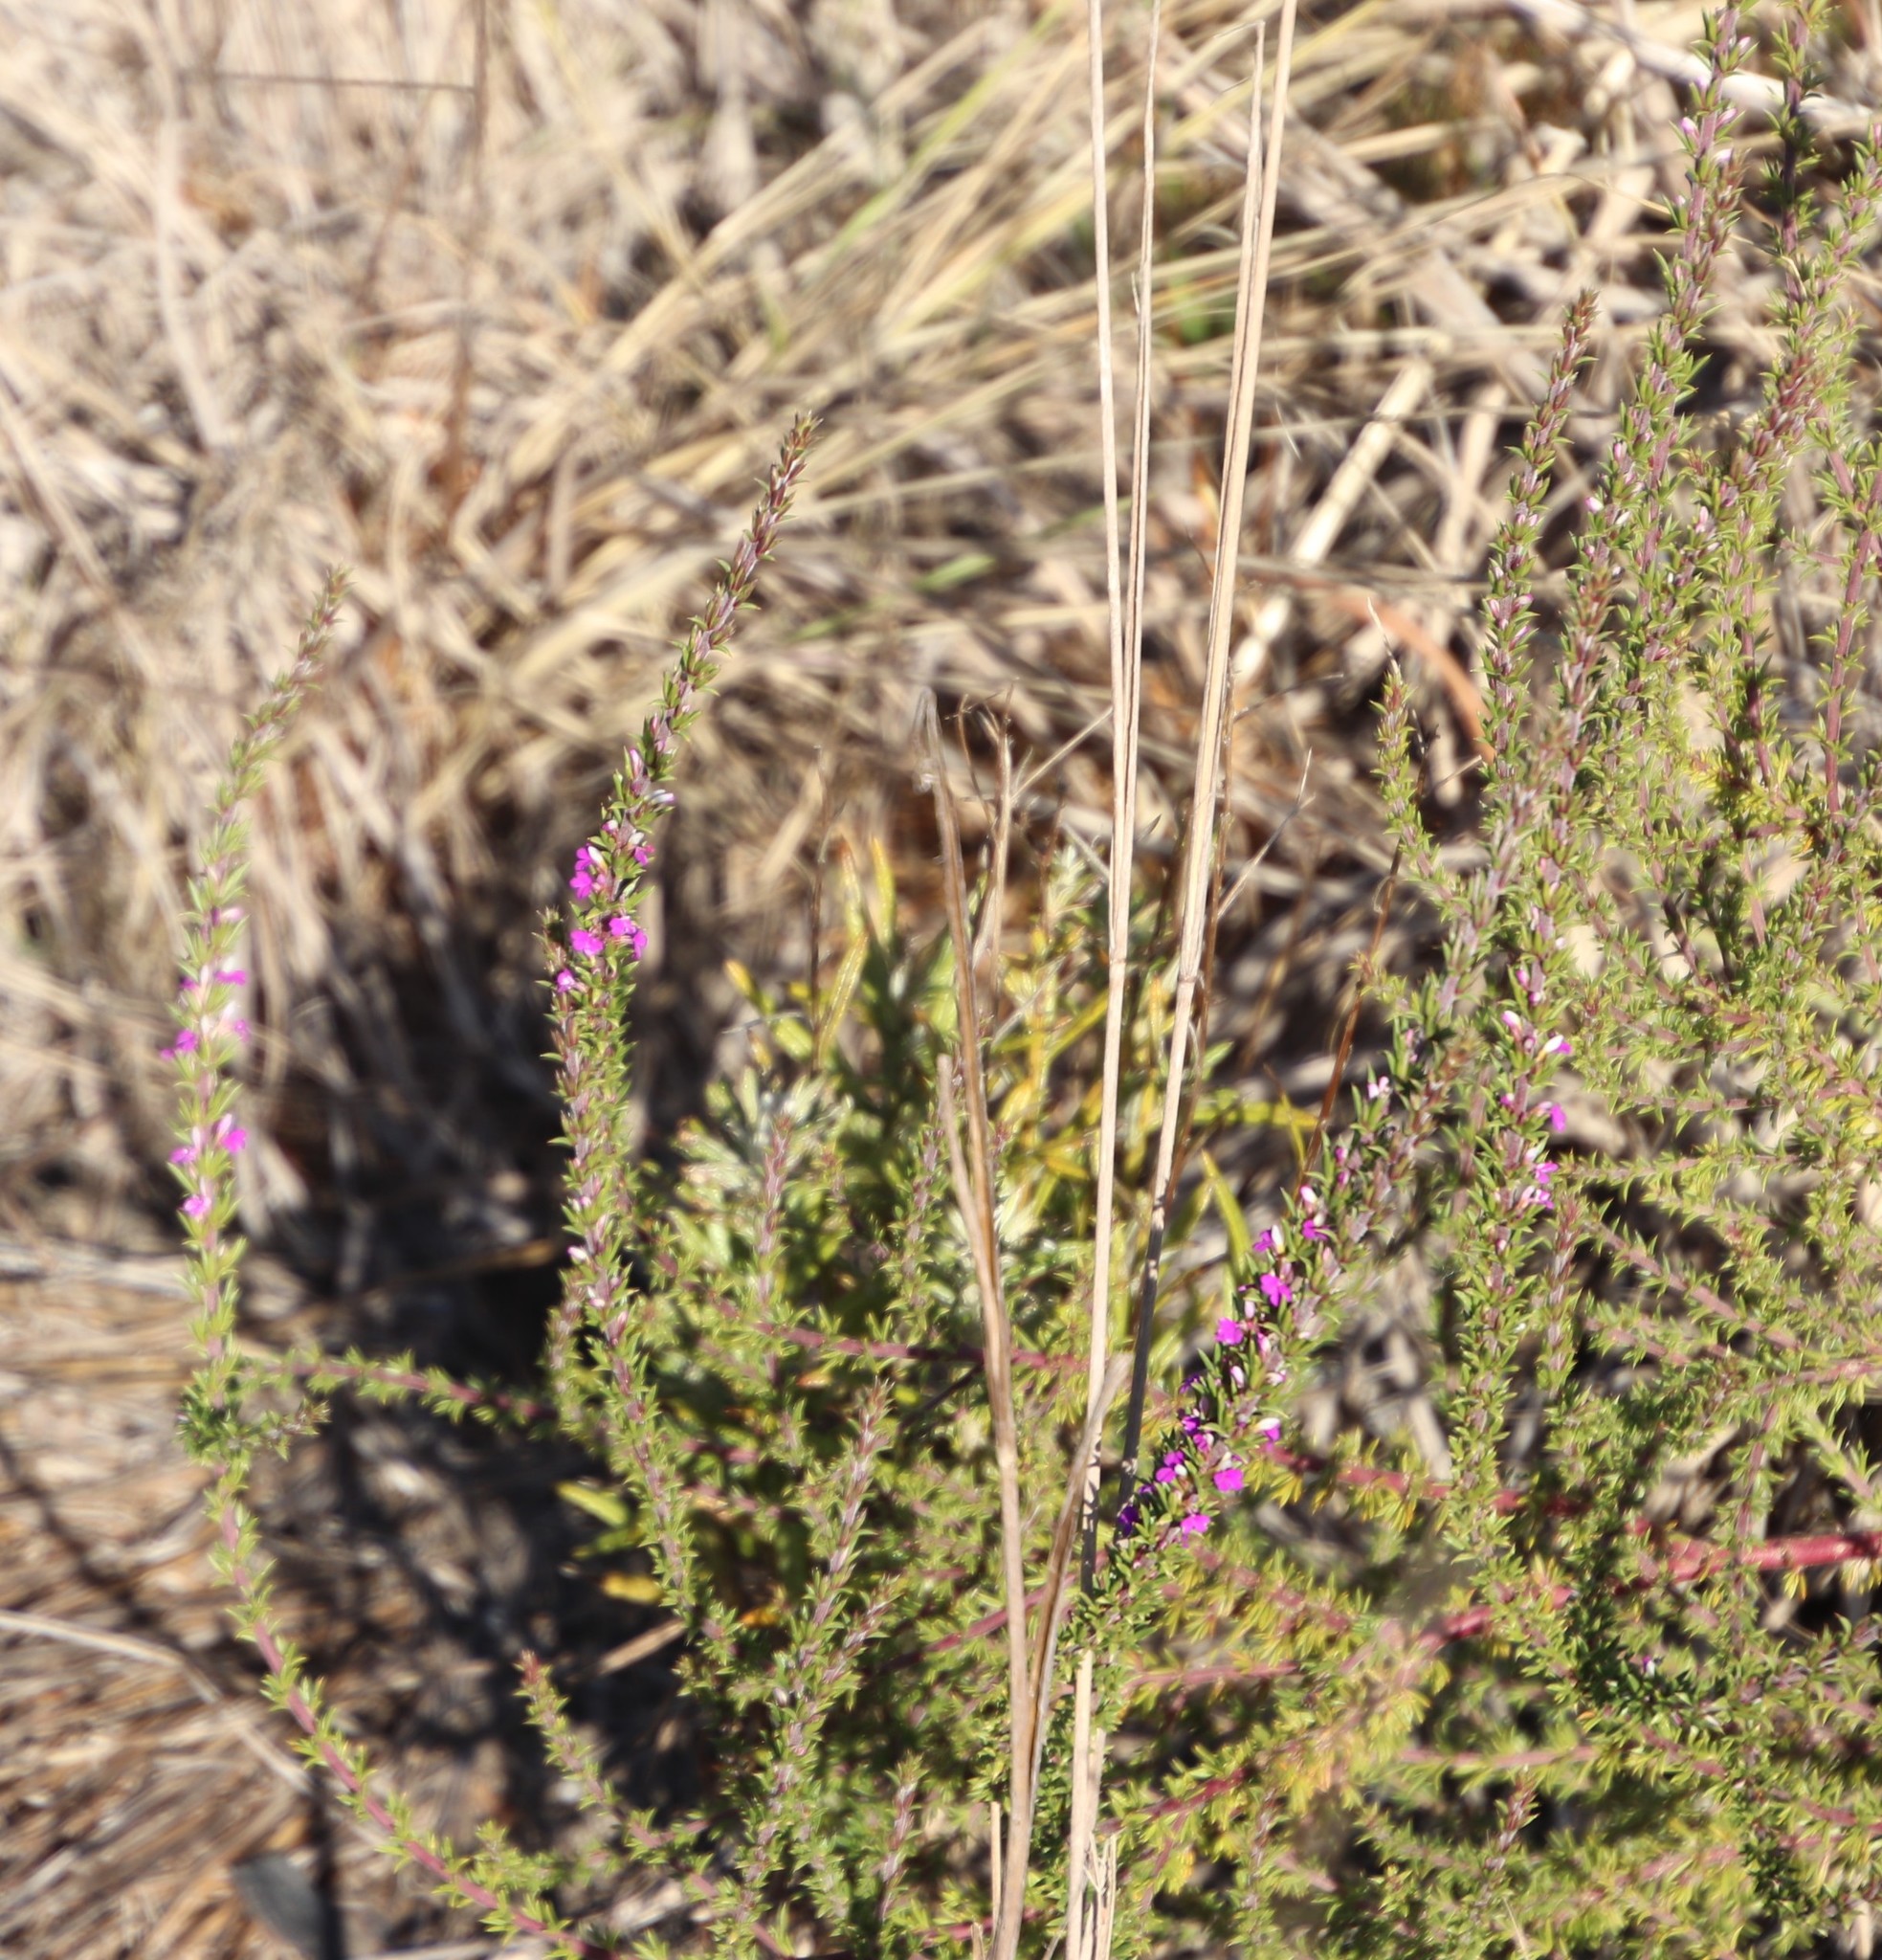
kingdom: Plantae
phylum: Tracheophyta
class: Magnoliopsida
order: Fabales
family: Polygalaceae
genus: Muraltia
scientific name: Muraltia heisteria
